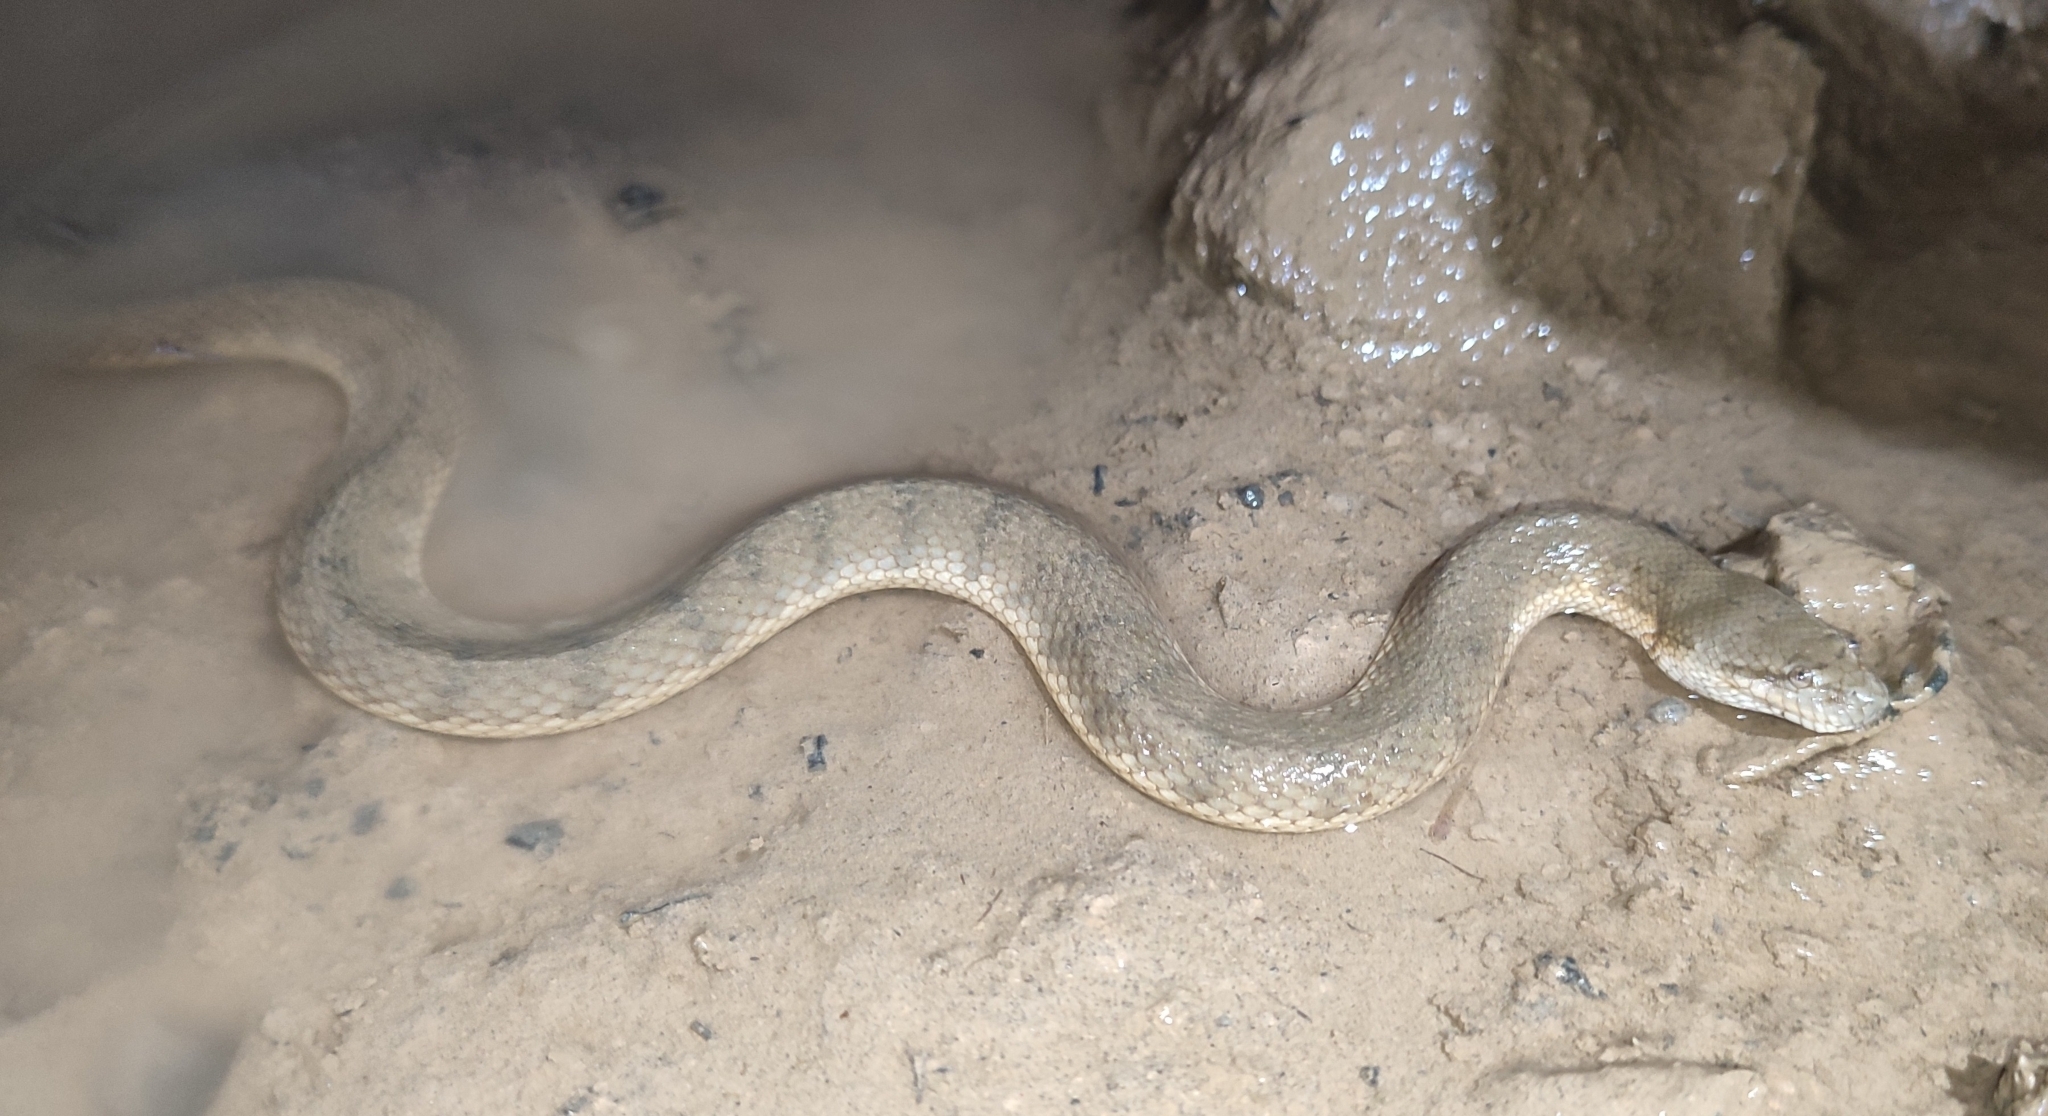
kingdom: Animalia
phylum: Chordata
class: Squamata
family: Homalopsidae
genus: Cerberus
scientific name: Cerberus schneiderii
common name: Southeast asian bockadam
